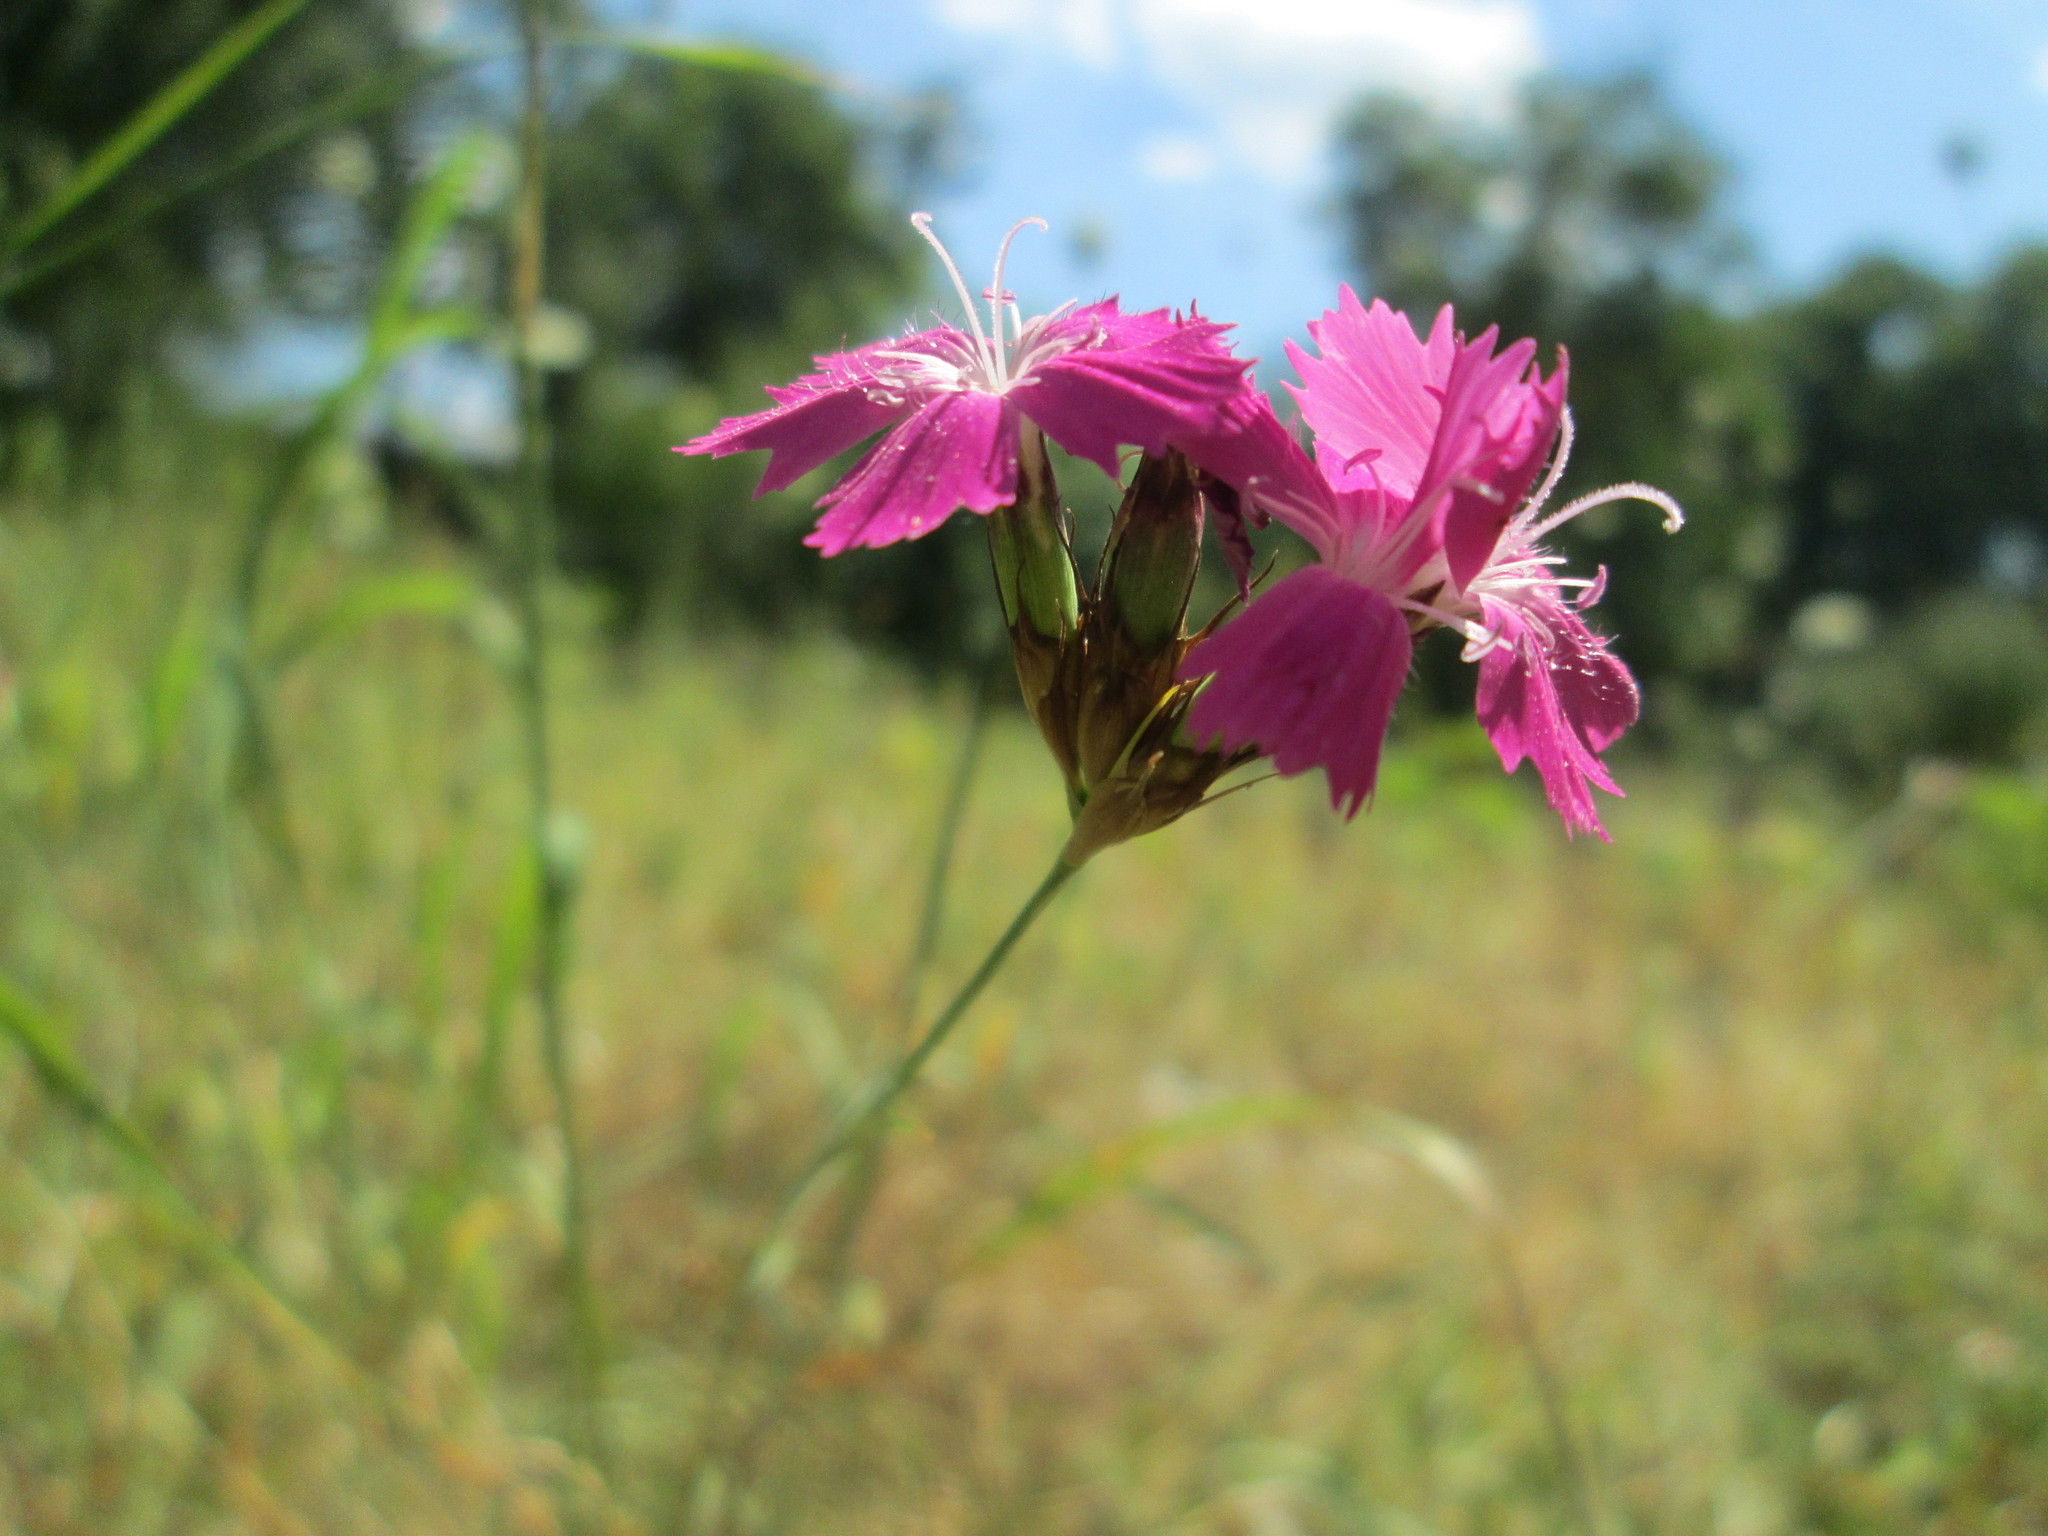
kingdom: Plantae
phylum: Tracheophyta
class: Magnoliopsida
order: Caryophyllales
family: Caryophyllaceae
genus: Dianthus
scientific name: Dianthus carthusianorum
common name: Carthusian pink
